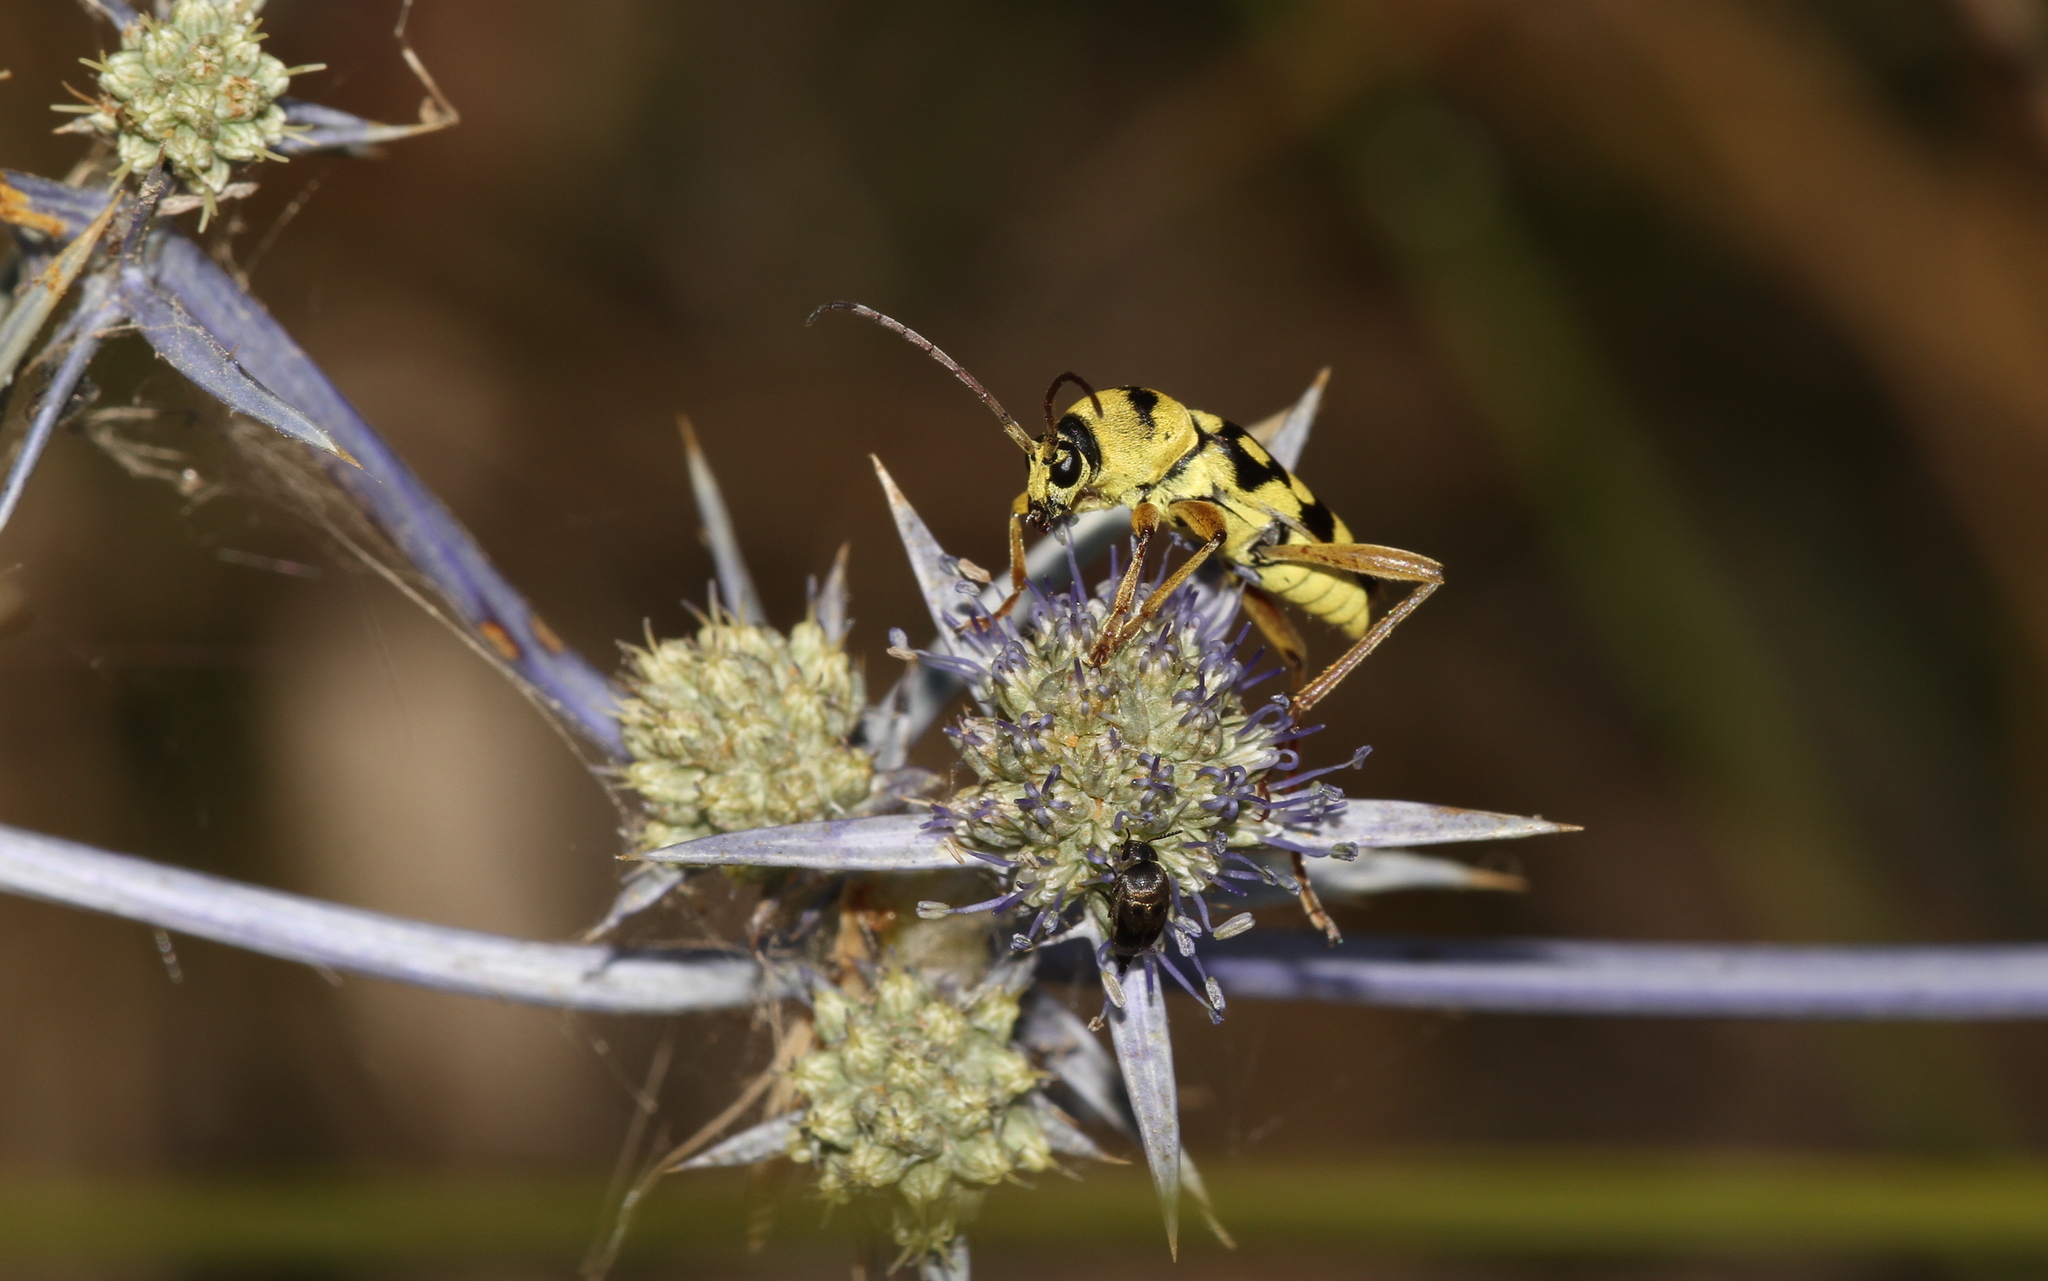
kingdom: Animalia
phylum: Arthropoda
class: Insecta
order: Coleoptera
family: Cerambycidae
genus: Chlorophorus
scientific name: Chlorophorus varius
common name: Grape wood borer
